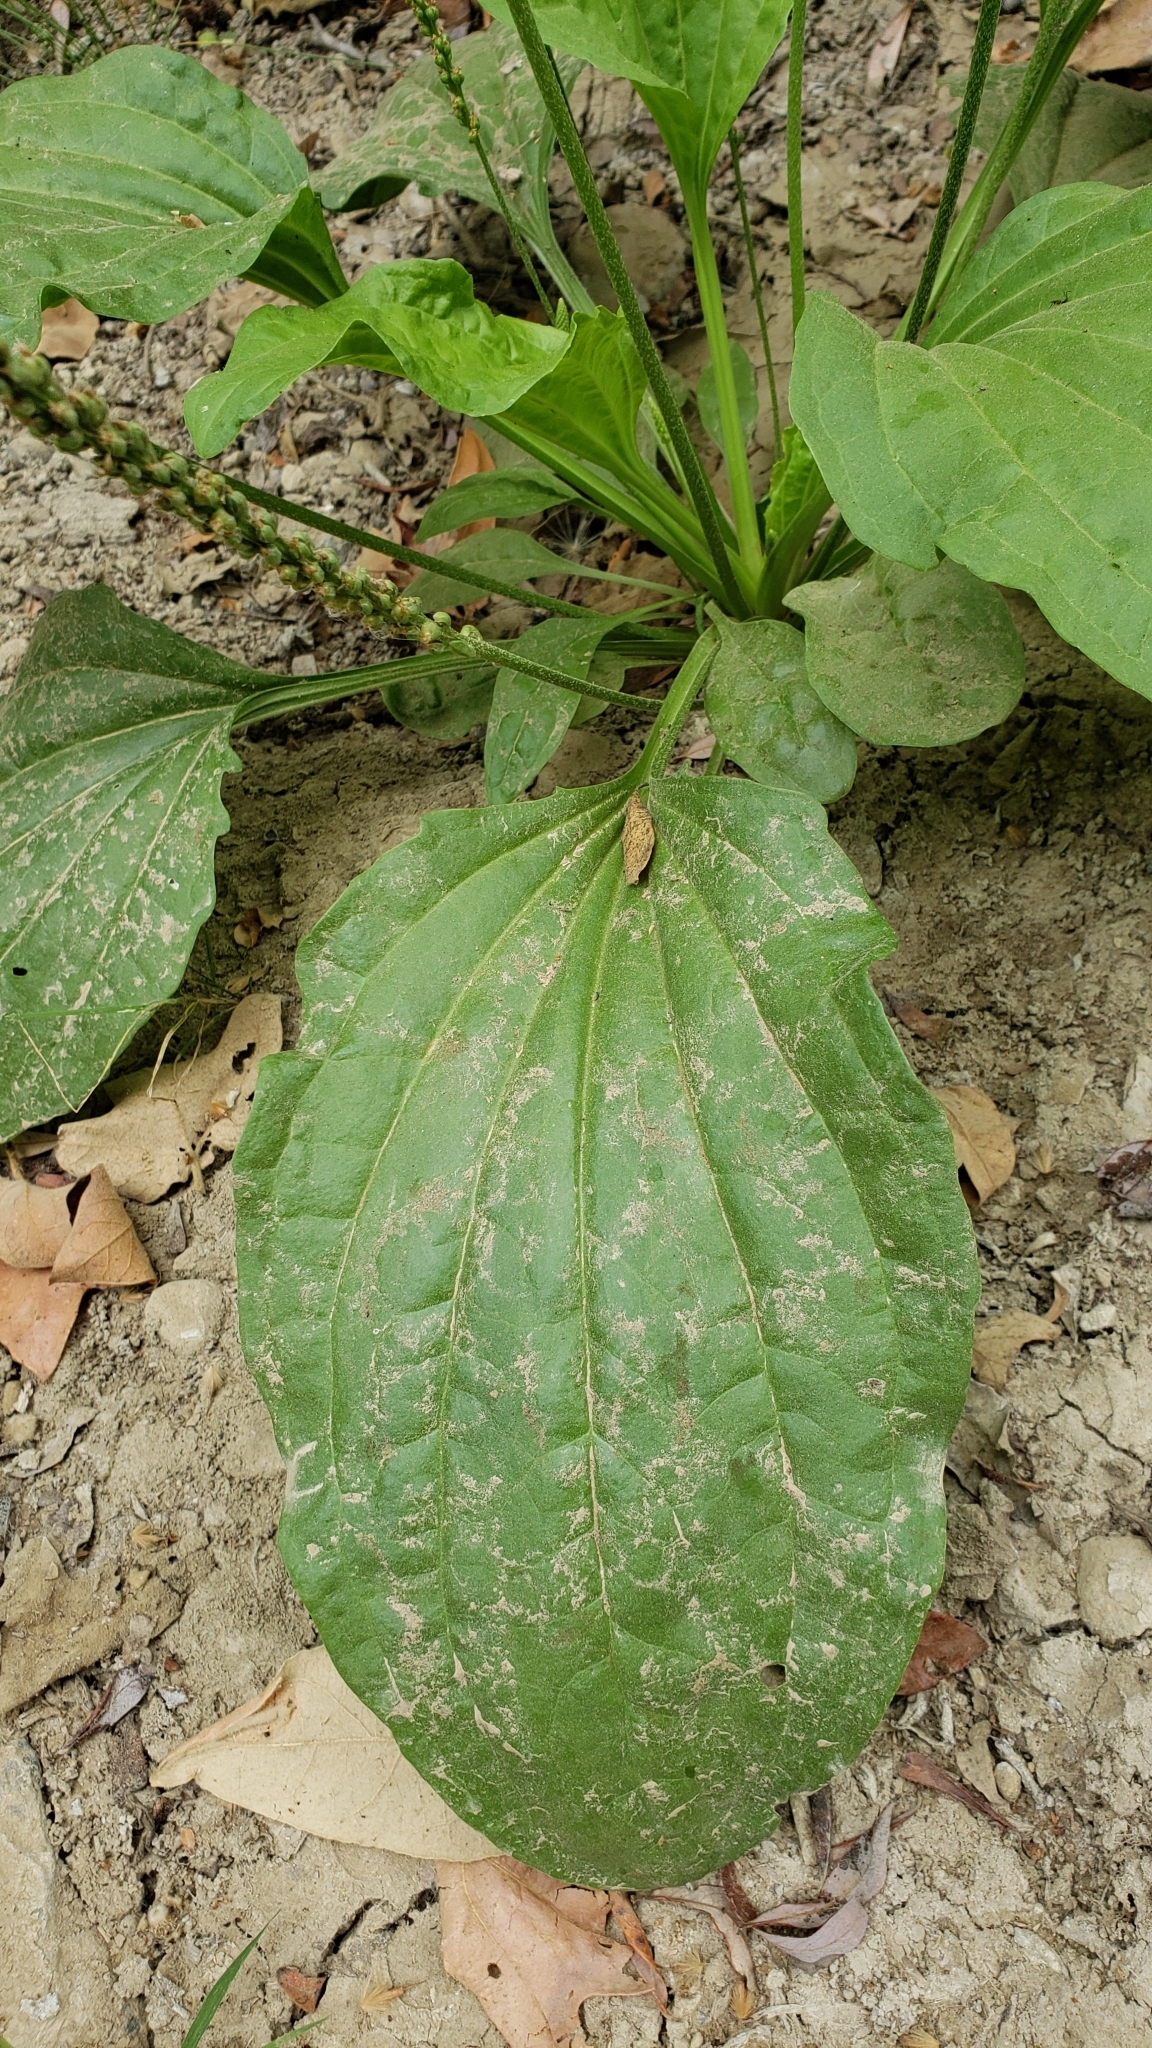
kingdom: Plantae
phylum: Tracheophyta
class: Magnoliopsida
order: Lamiales
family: Plantaginaceae
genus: Plantago
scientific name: Plantago major
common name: Common plantain
